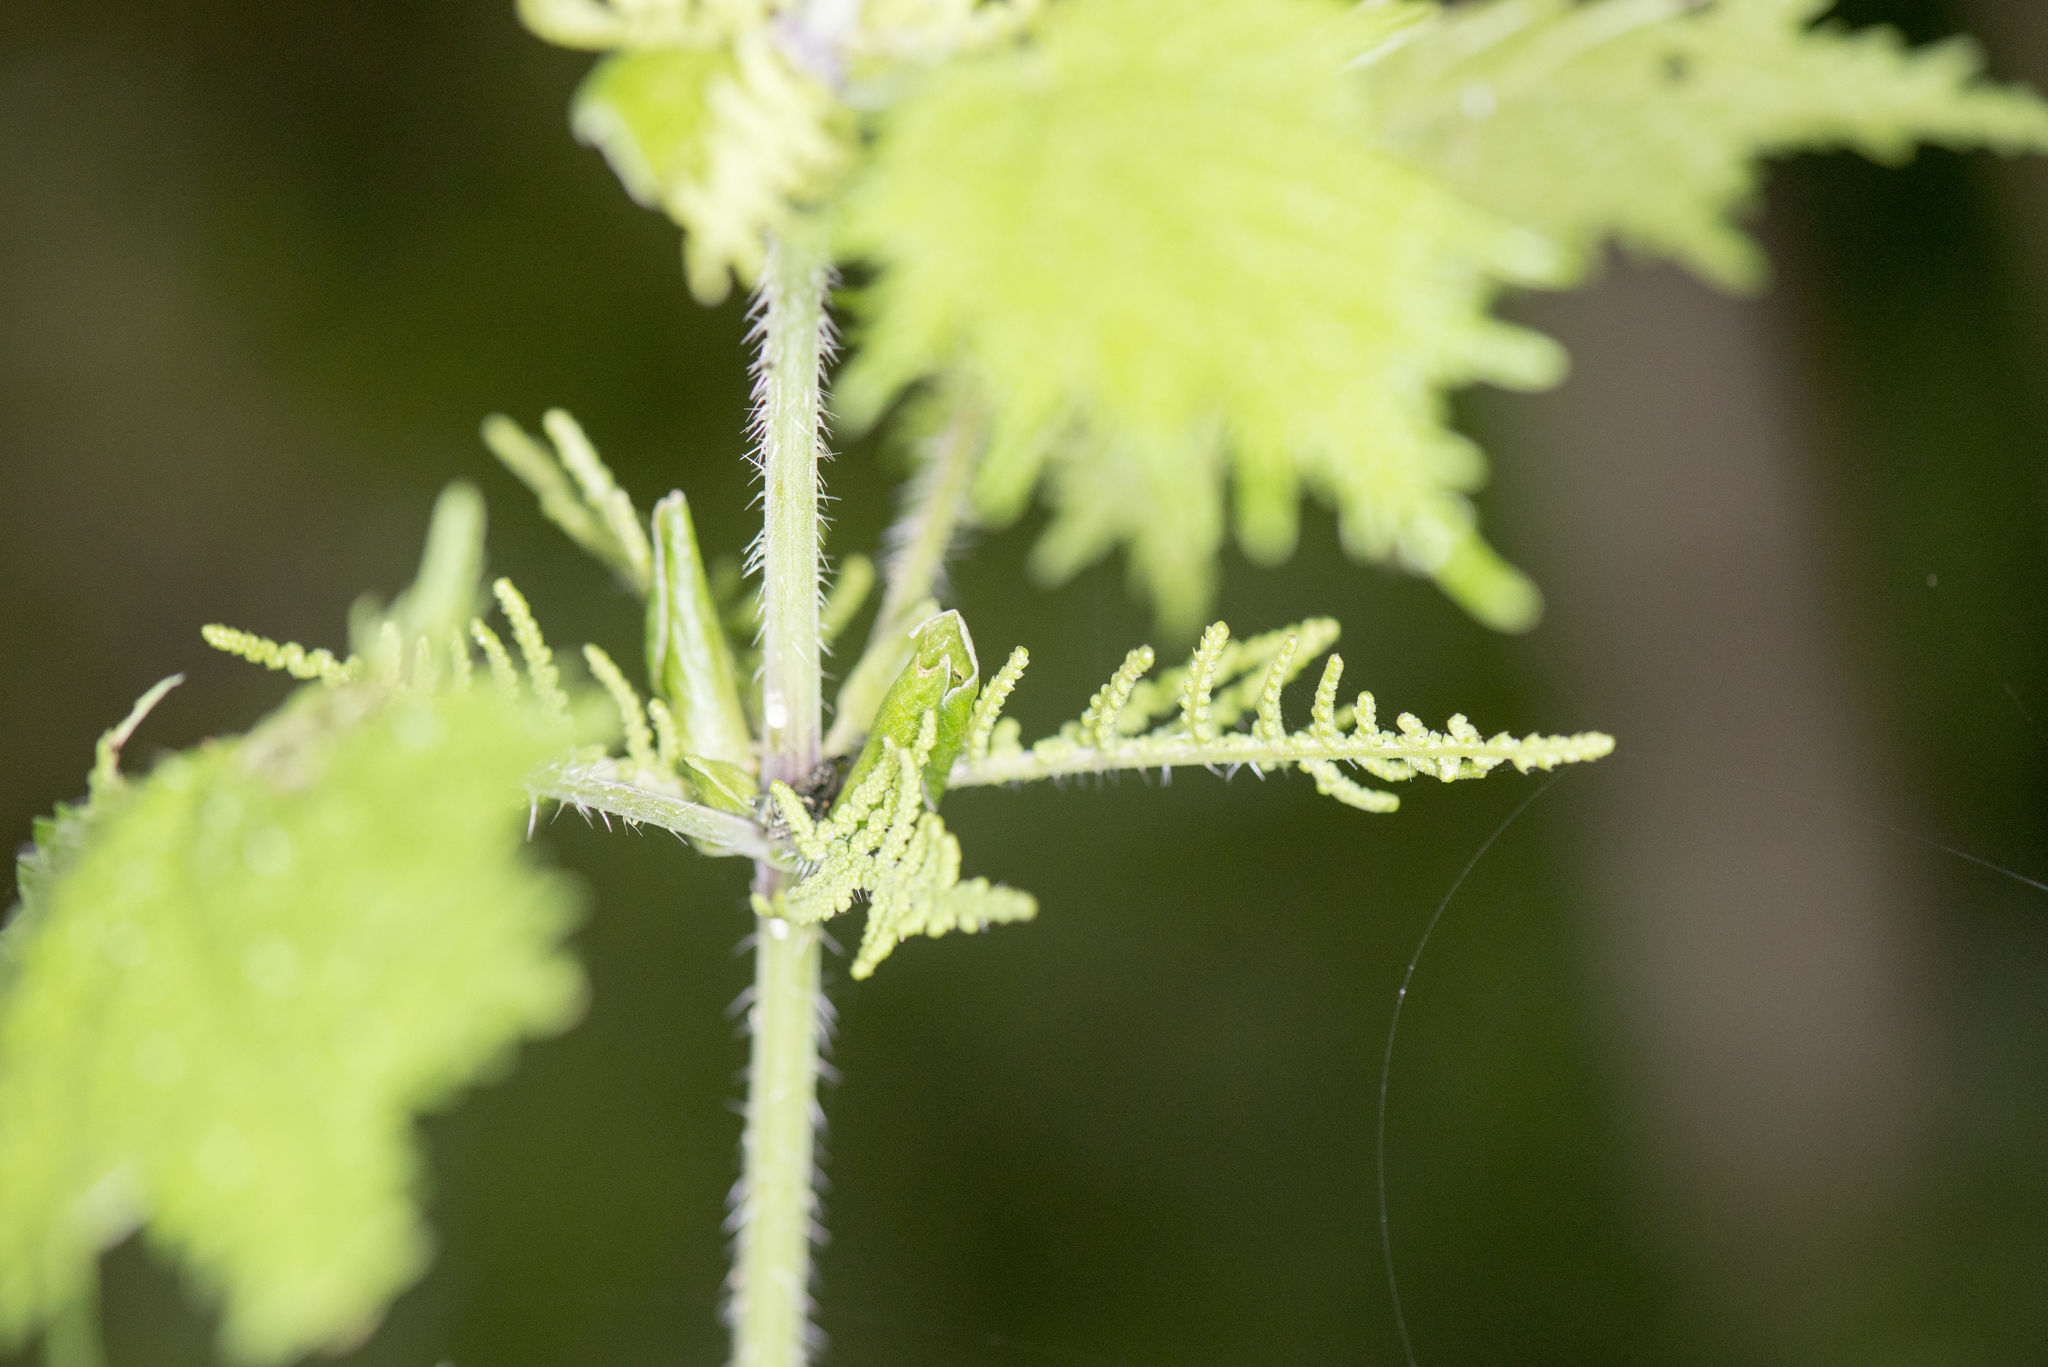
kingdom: Plantae
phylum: Tracheophyta
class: Magnoliopsida
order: Rosales
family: Urticaceae
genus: Urtica
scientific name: Urtica thunbergiana
